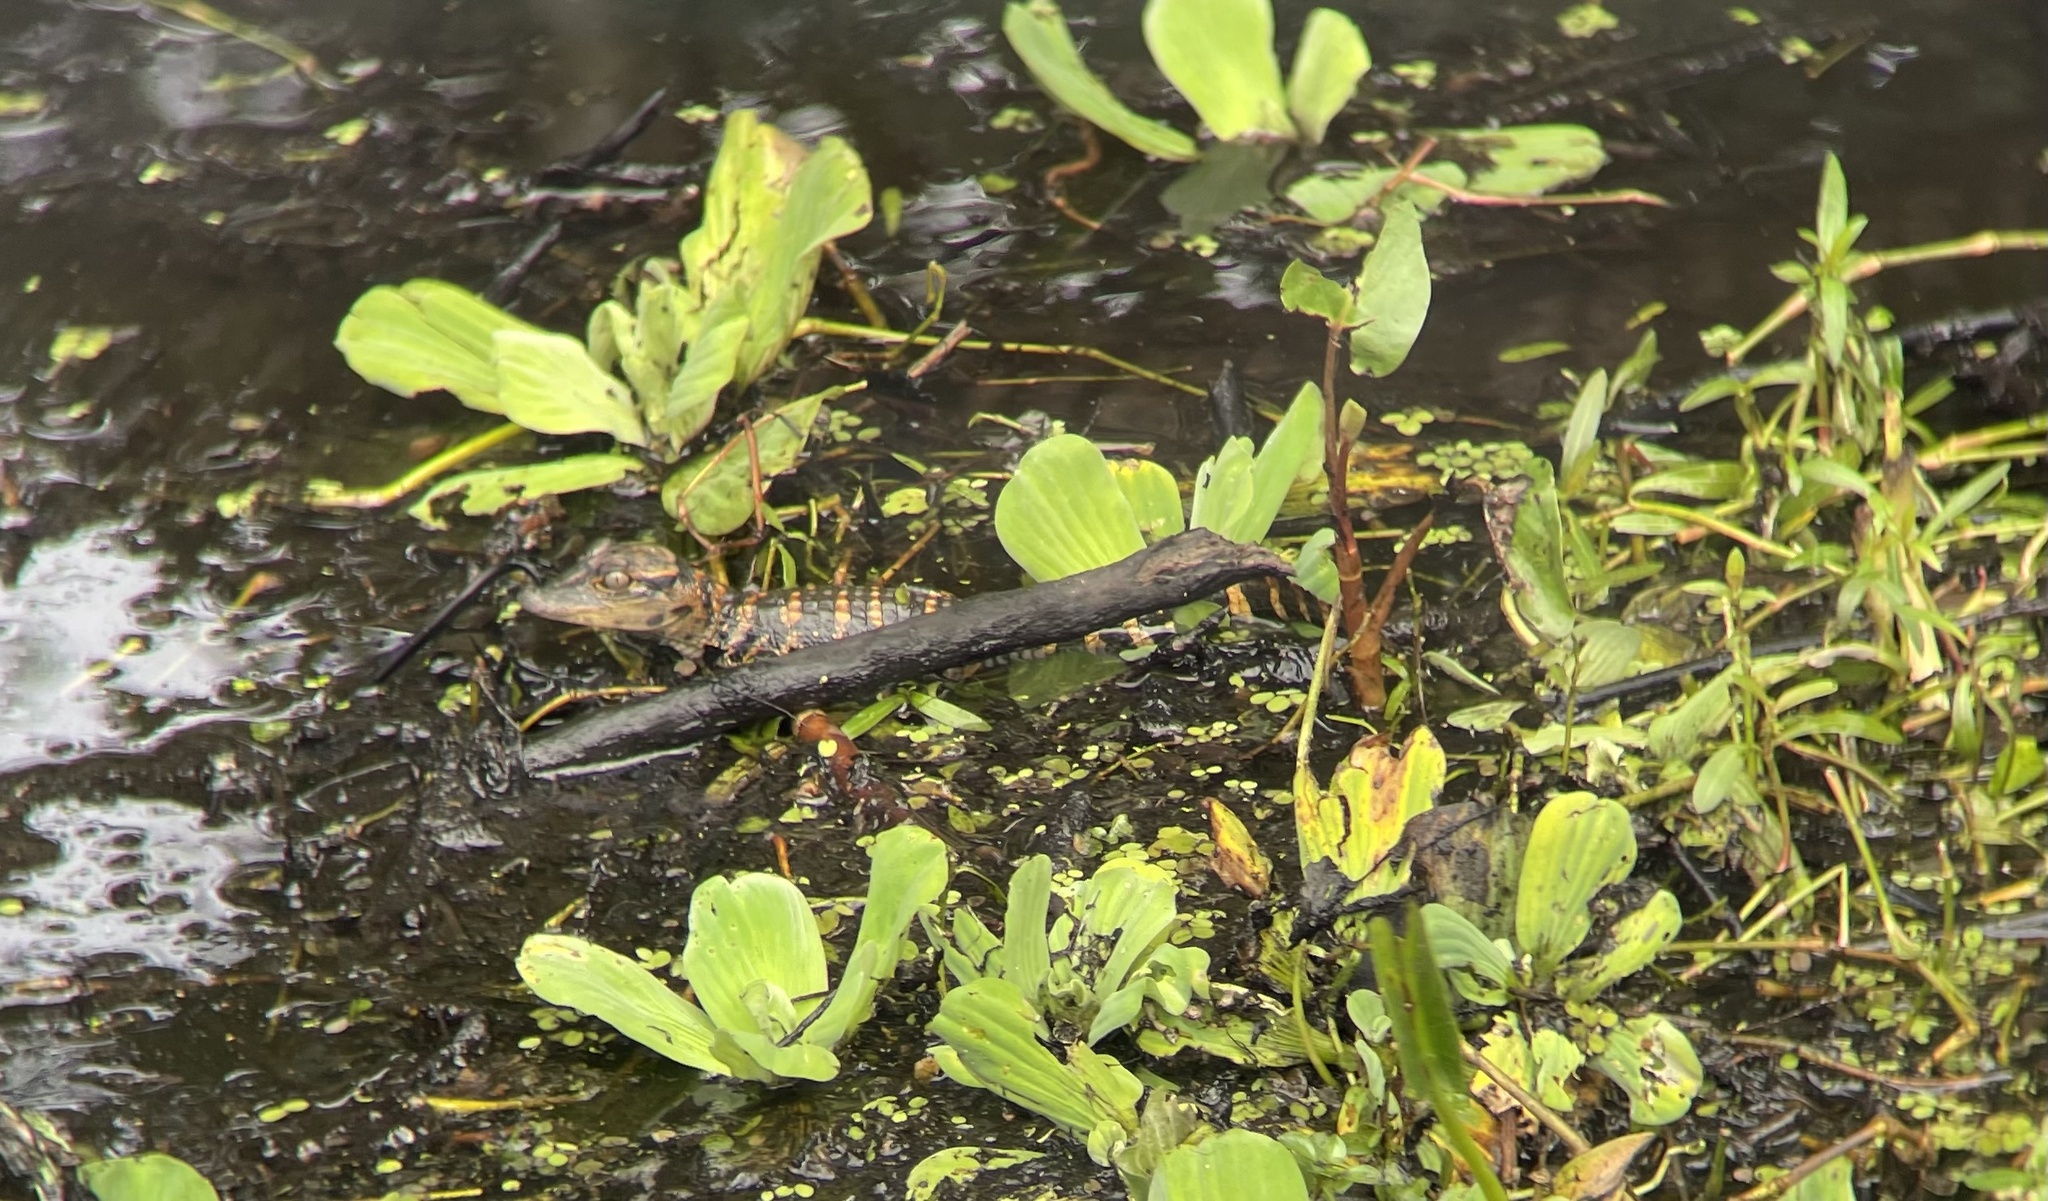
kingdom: Animalia
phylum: Chordata
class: Crocodylia
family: Alligatoridae
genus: Alligator
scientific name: Alligator mississippiensis
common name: American alligator
